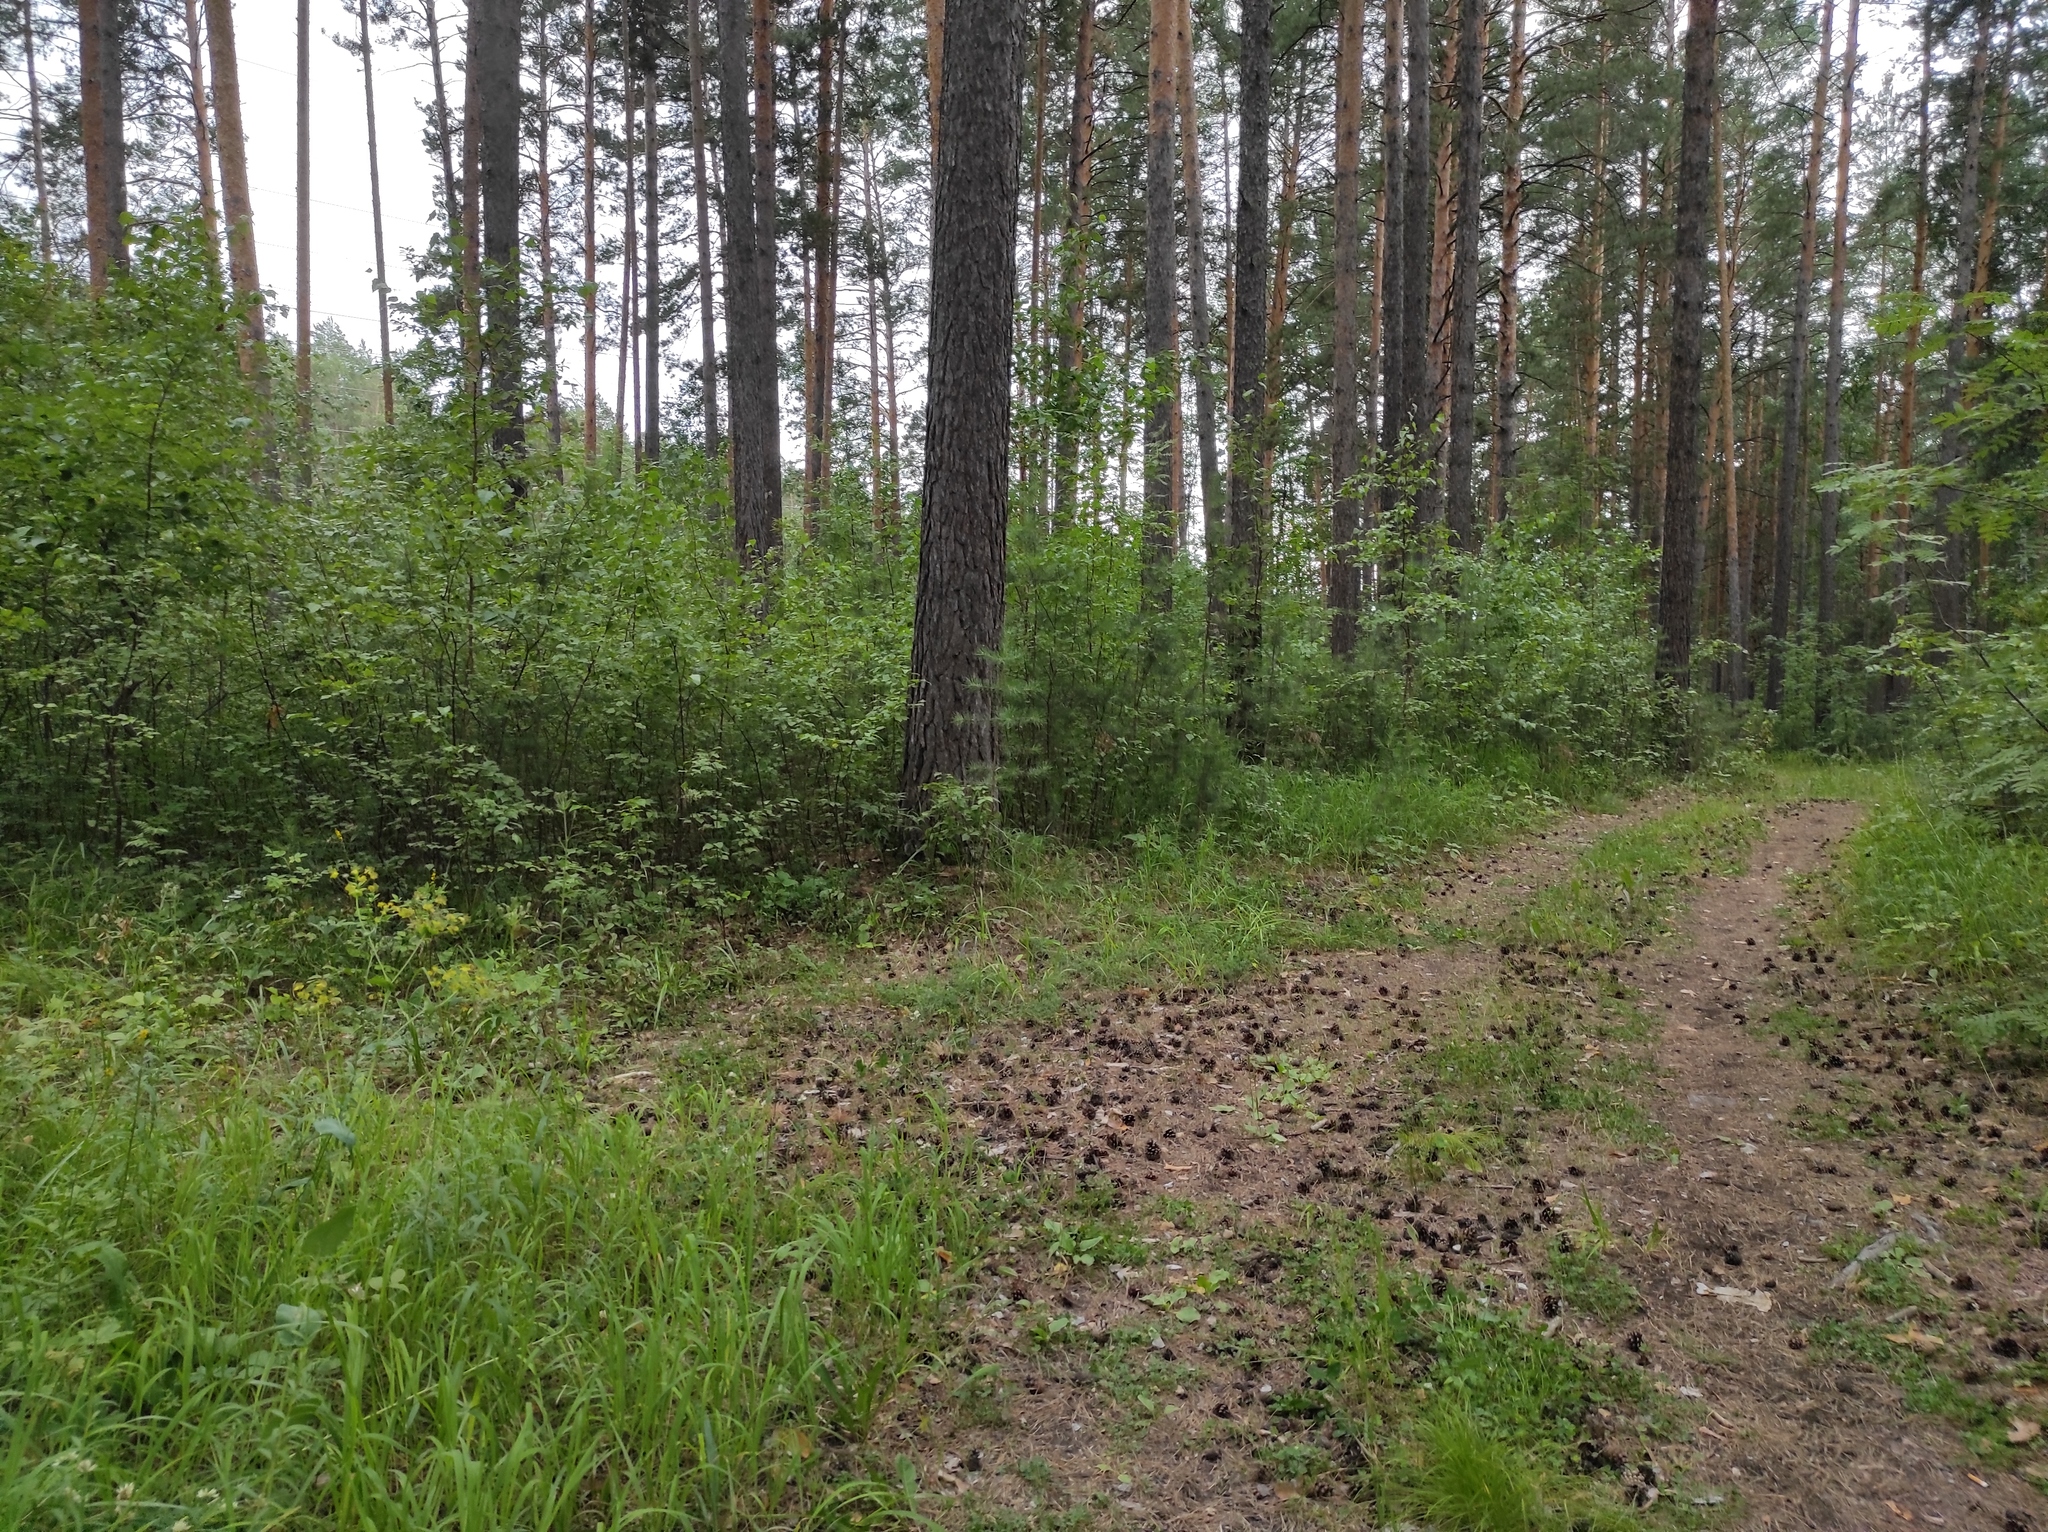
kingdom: Plantae
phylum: Tracheophyta
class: Pinopsida
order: Pinales
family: Pinaceae
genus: Pinus
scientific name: Pinus sylvestris
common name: Scots pine
